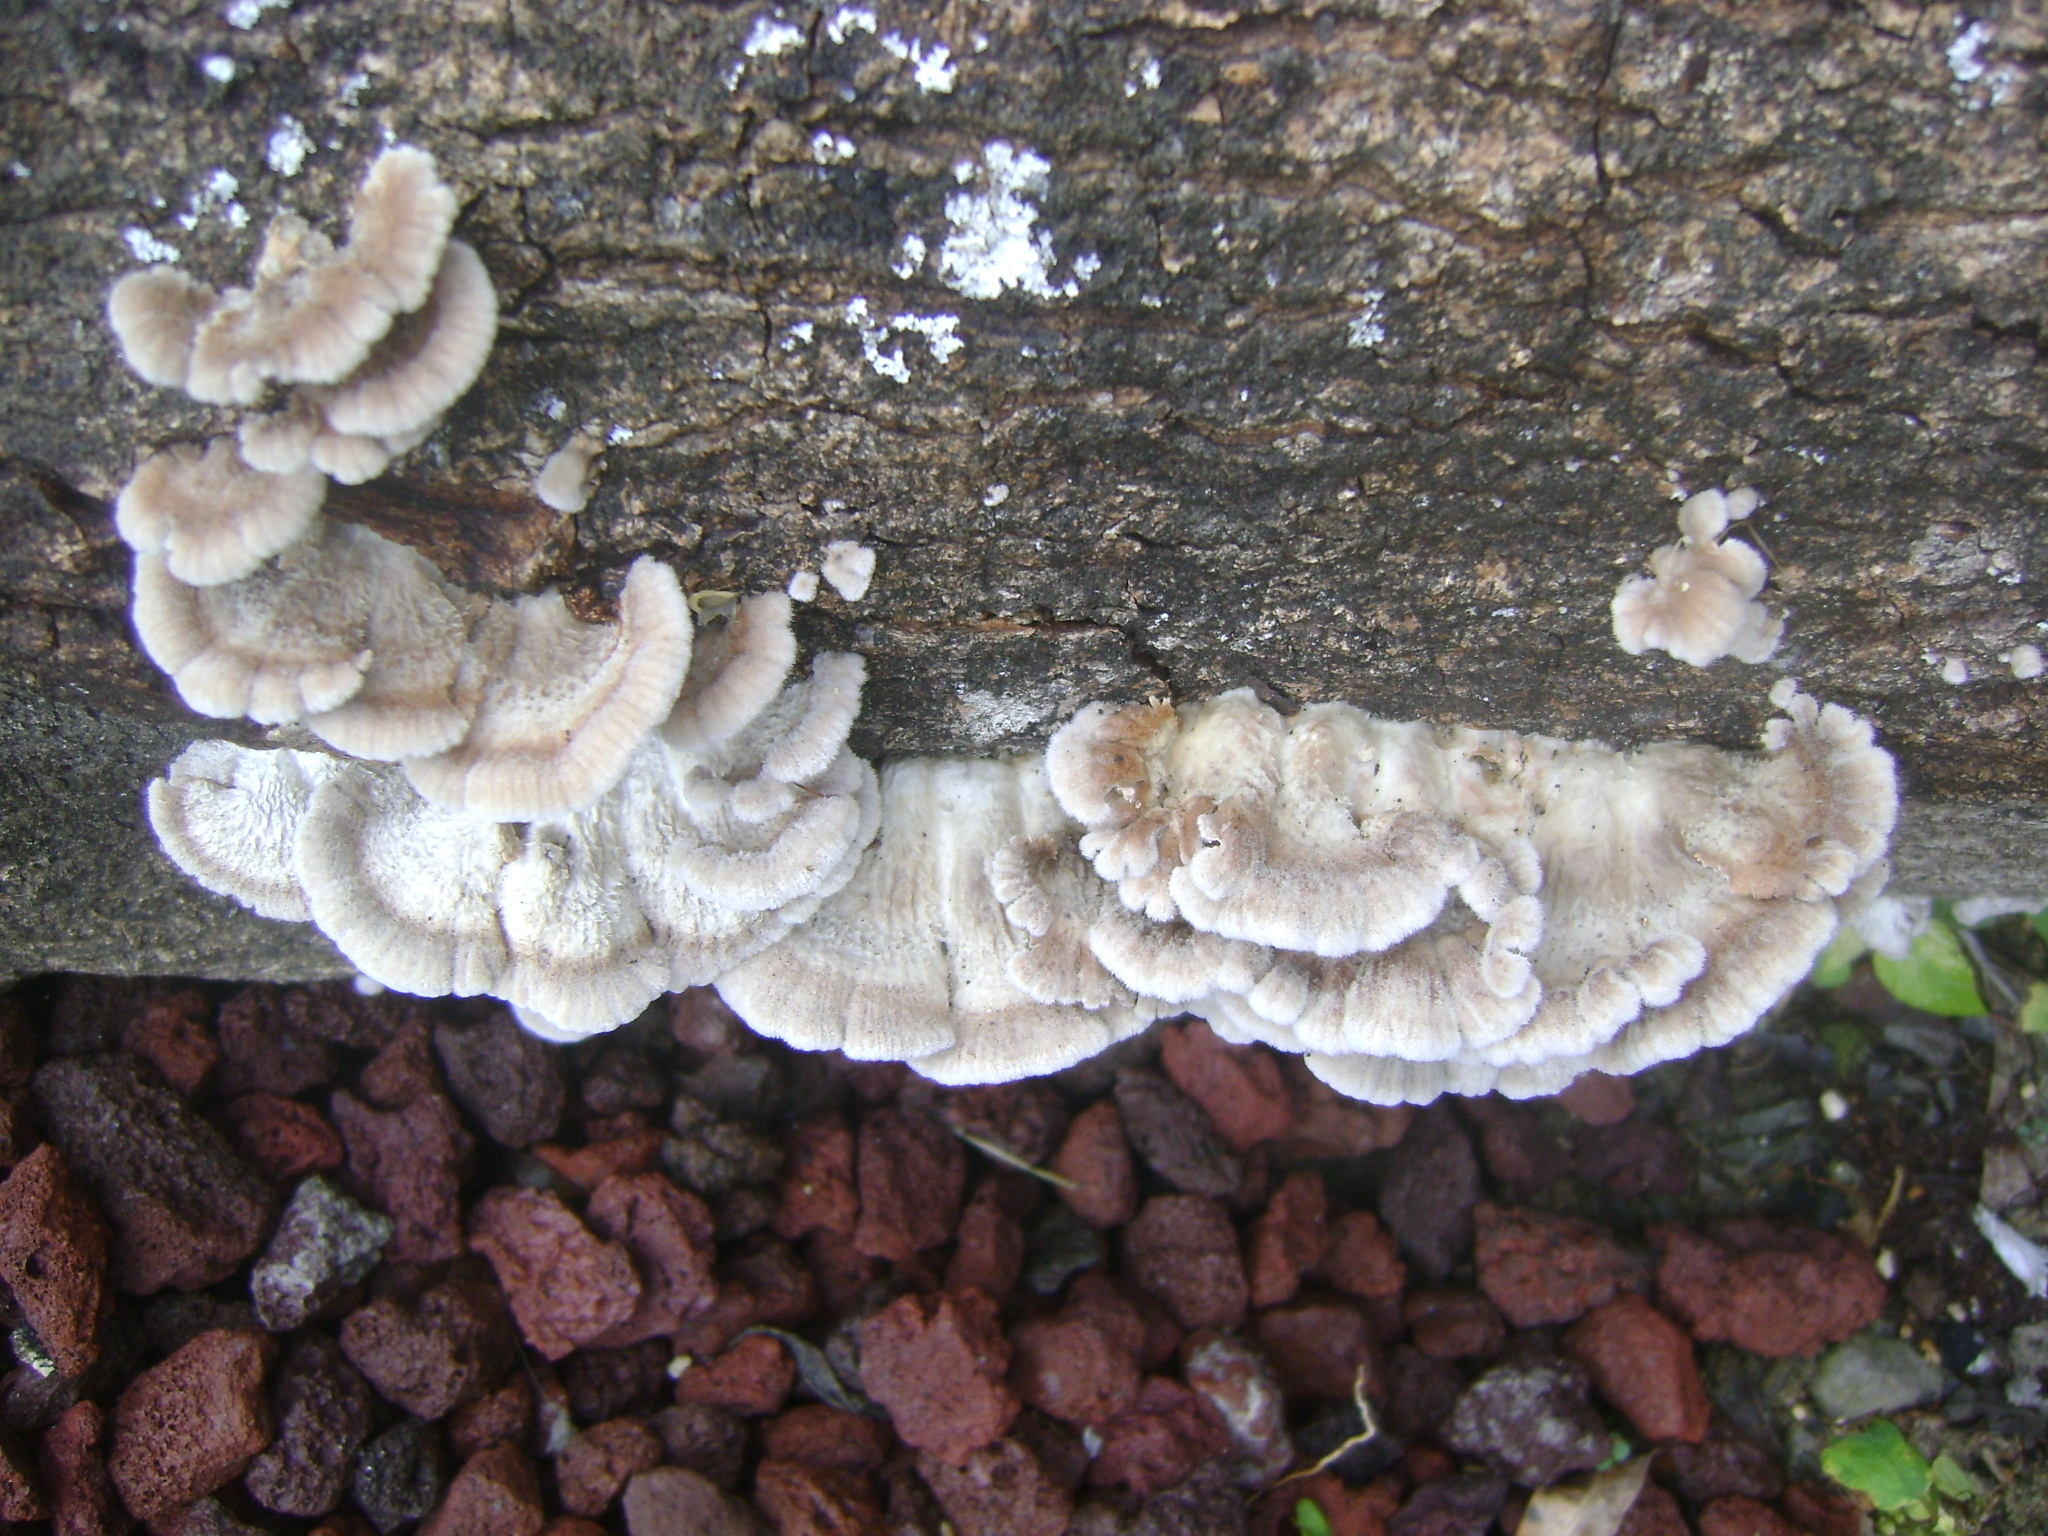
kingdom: Fungi
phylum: Basidiomycota
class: Agaricomycetes
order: Agaricales
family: Schizophyllaceae
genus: Schizophyllum
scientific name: Schizophyllum commune
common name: Common porecrust
